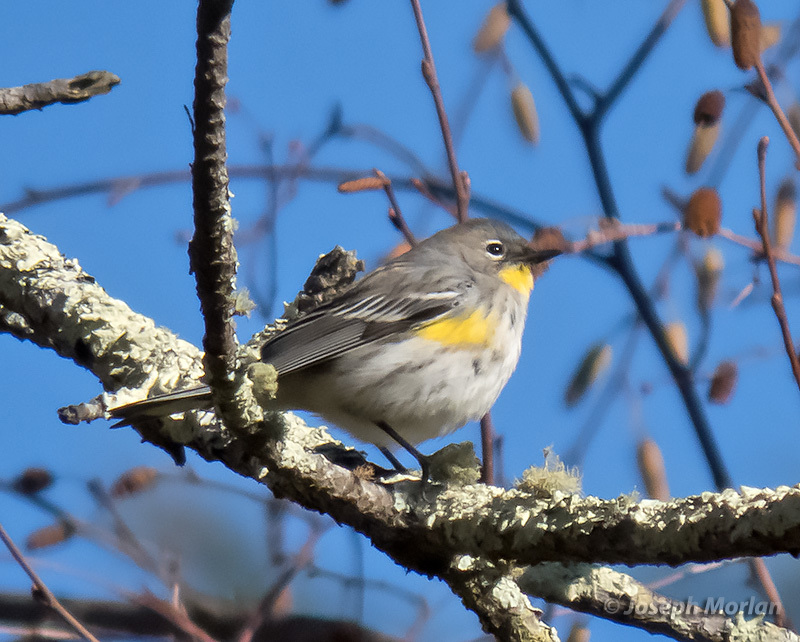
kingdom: Animalia
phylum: Chordata
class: Aves
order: Passeriformes
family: Parulidae
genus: Setophaga
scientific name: Setophaga auduboni
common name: Audubon's warbler
